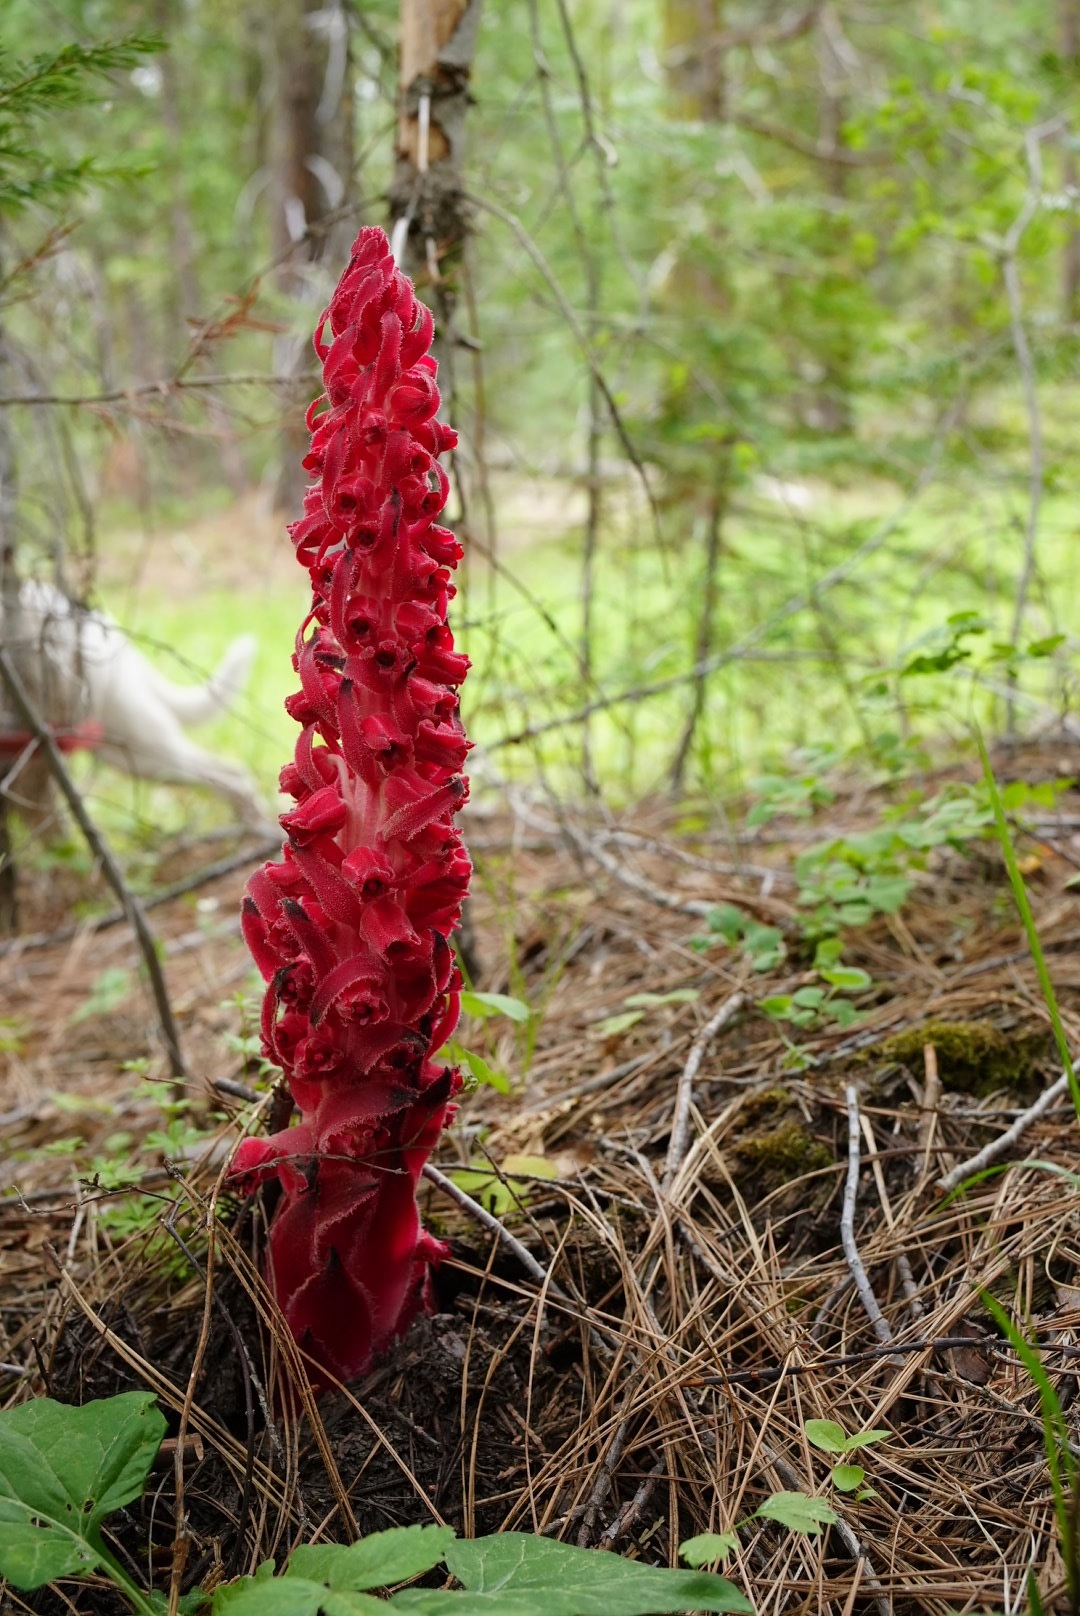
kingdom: Plantae
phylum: Tracheophyta
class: Magnoliopsida
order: Ericales
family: Ericaceae
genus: Sarcodes
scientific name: Sarcodes sanguinea
